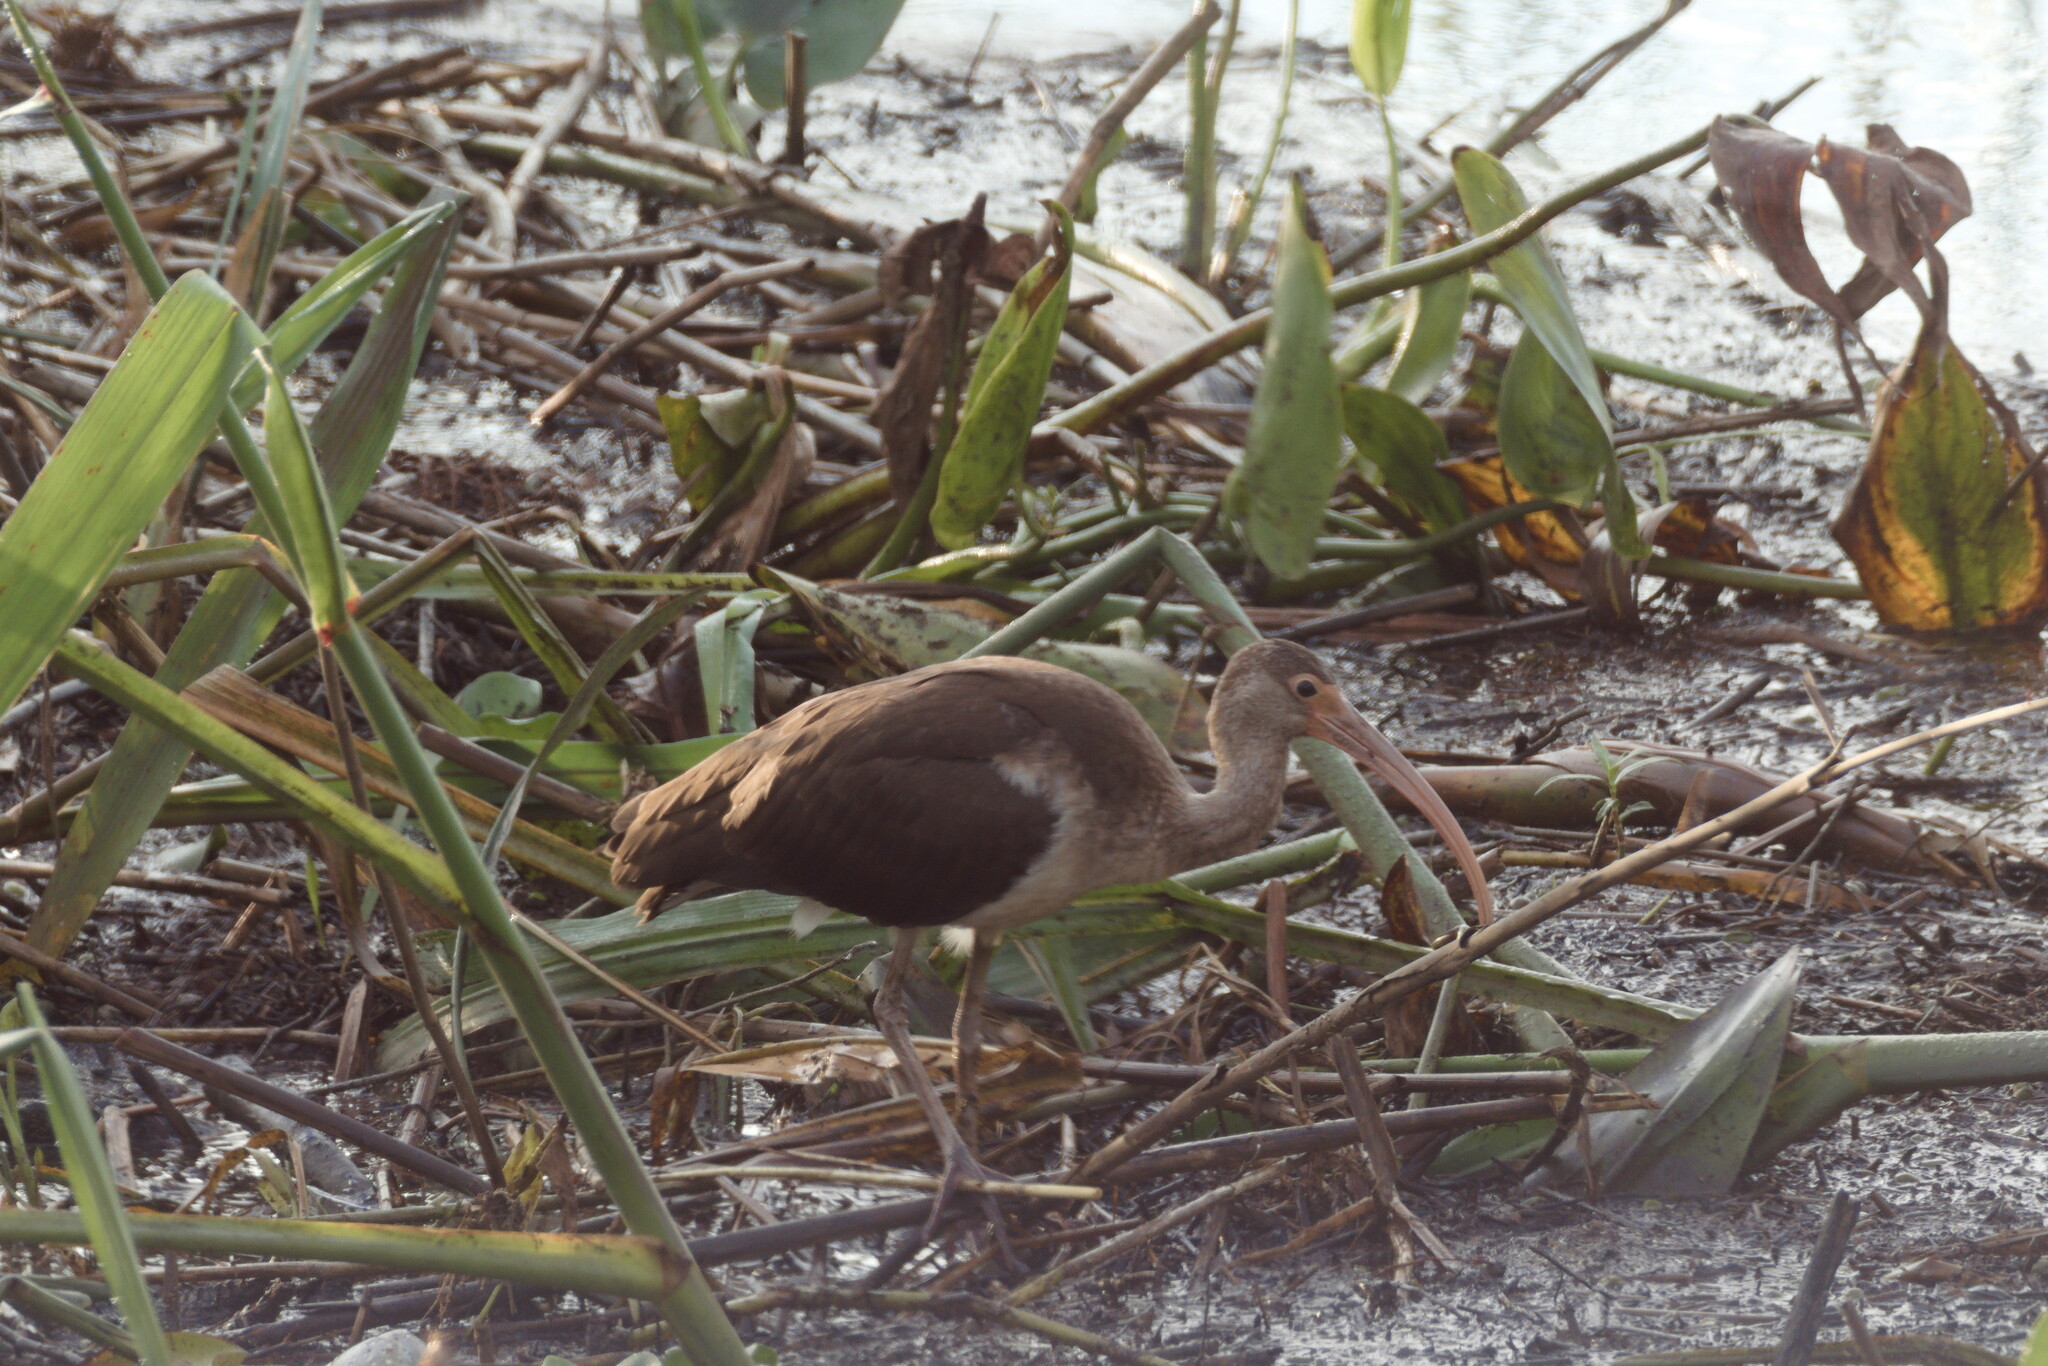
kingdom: Animalia
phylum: Chordata
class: Aves
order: Pelecaniformes
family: Threskiornithidae
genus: Eudocimus
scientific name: Eudocimus albus
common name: White ibis
